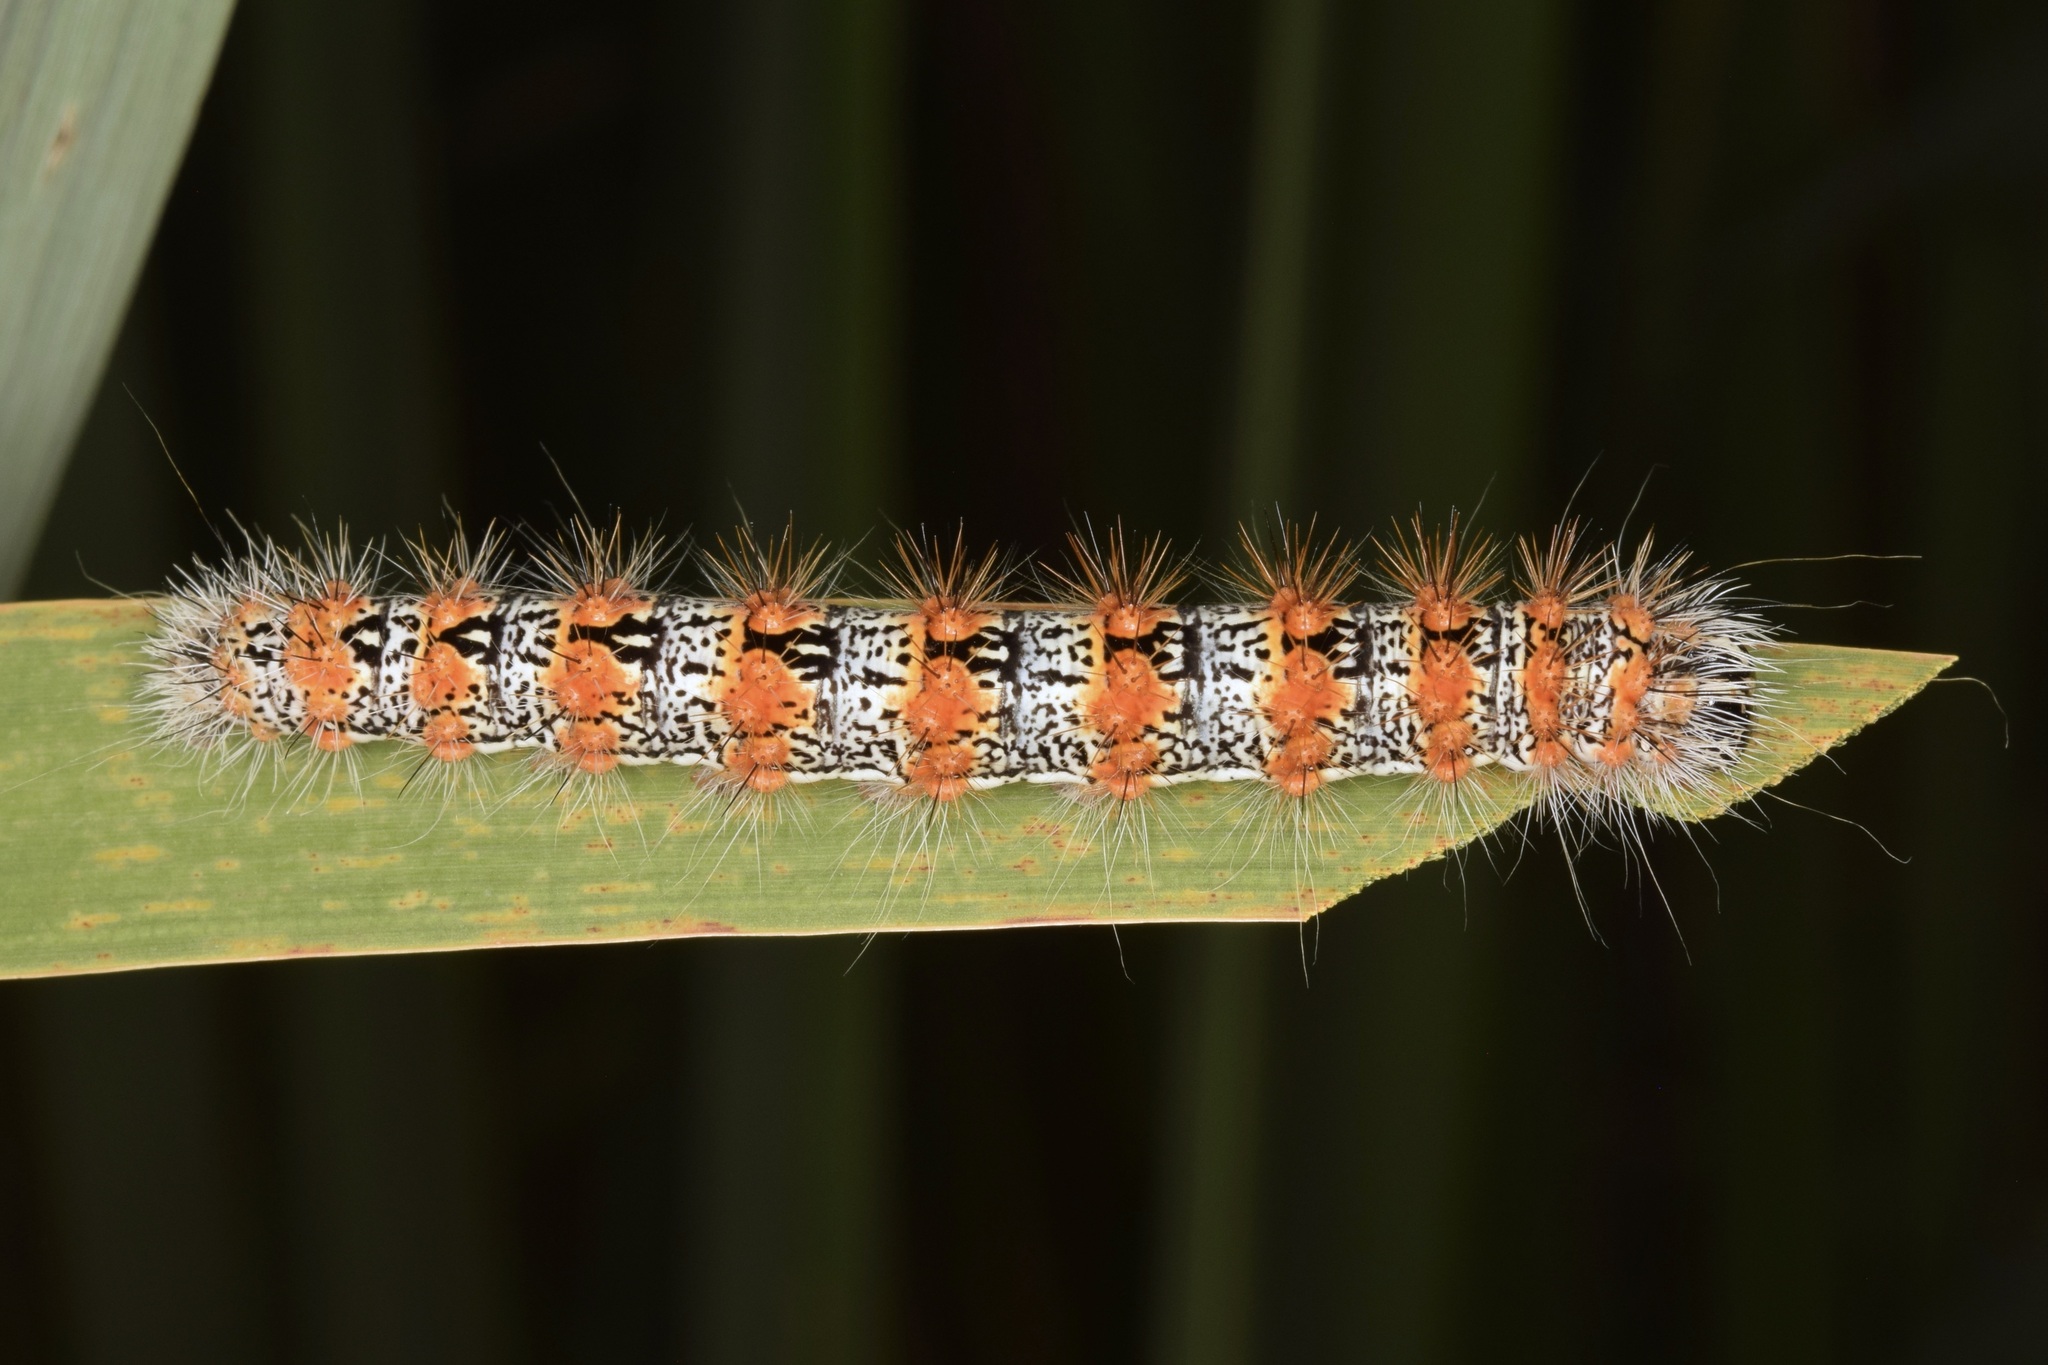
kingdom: Animalia
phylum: Arthropoda
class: Insecta
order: Lepidoptera
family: Noctuidae
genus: Acronicta
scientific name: Acronicta insularis
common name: Henry's marsh moth
